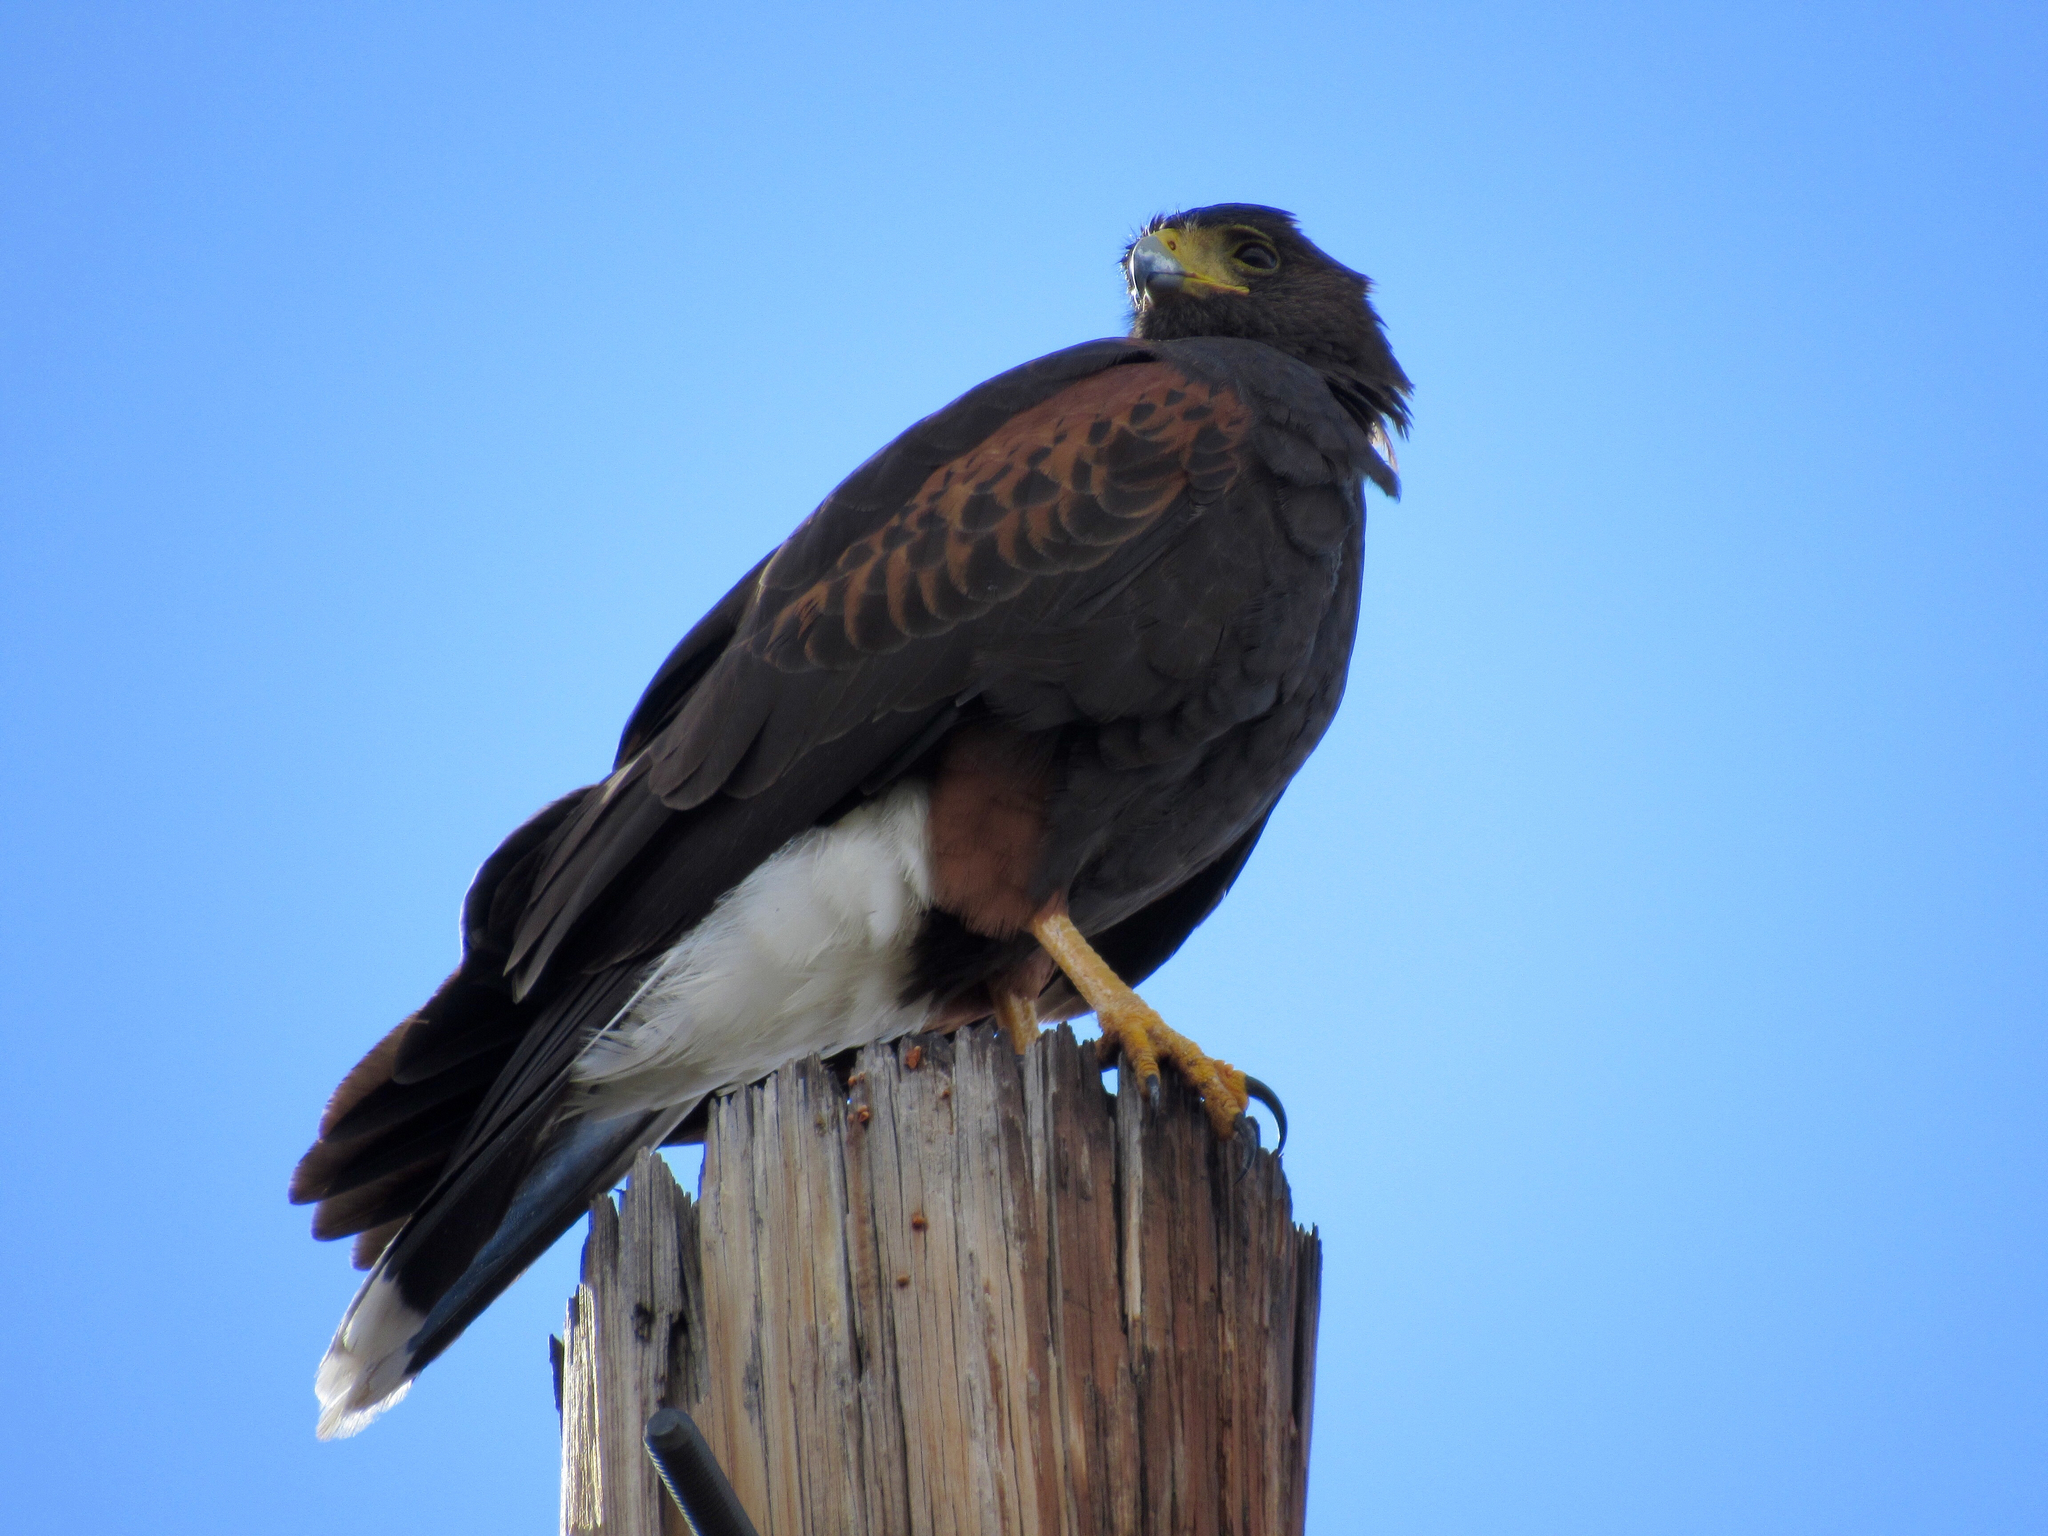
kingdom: Animalia
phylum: Chordata
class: Aves
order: Accipitriformes
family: Accipitridae
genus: Parabuteo
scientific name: Parabuteo unicinctus
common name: Harris's hawk
